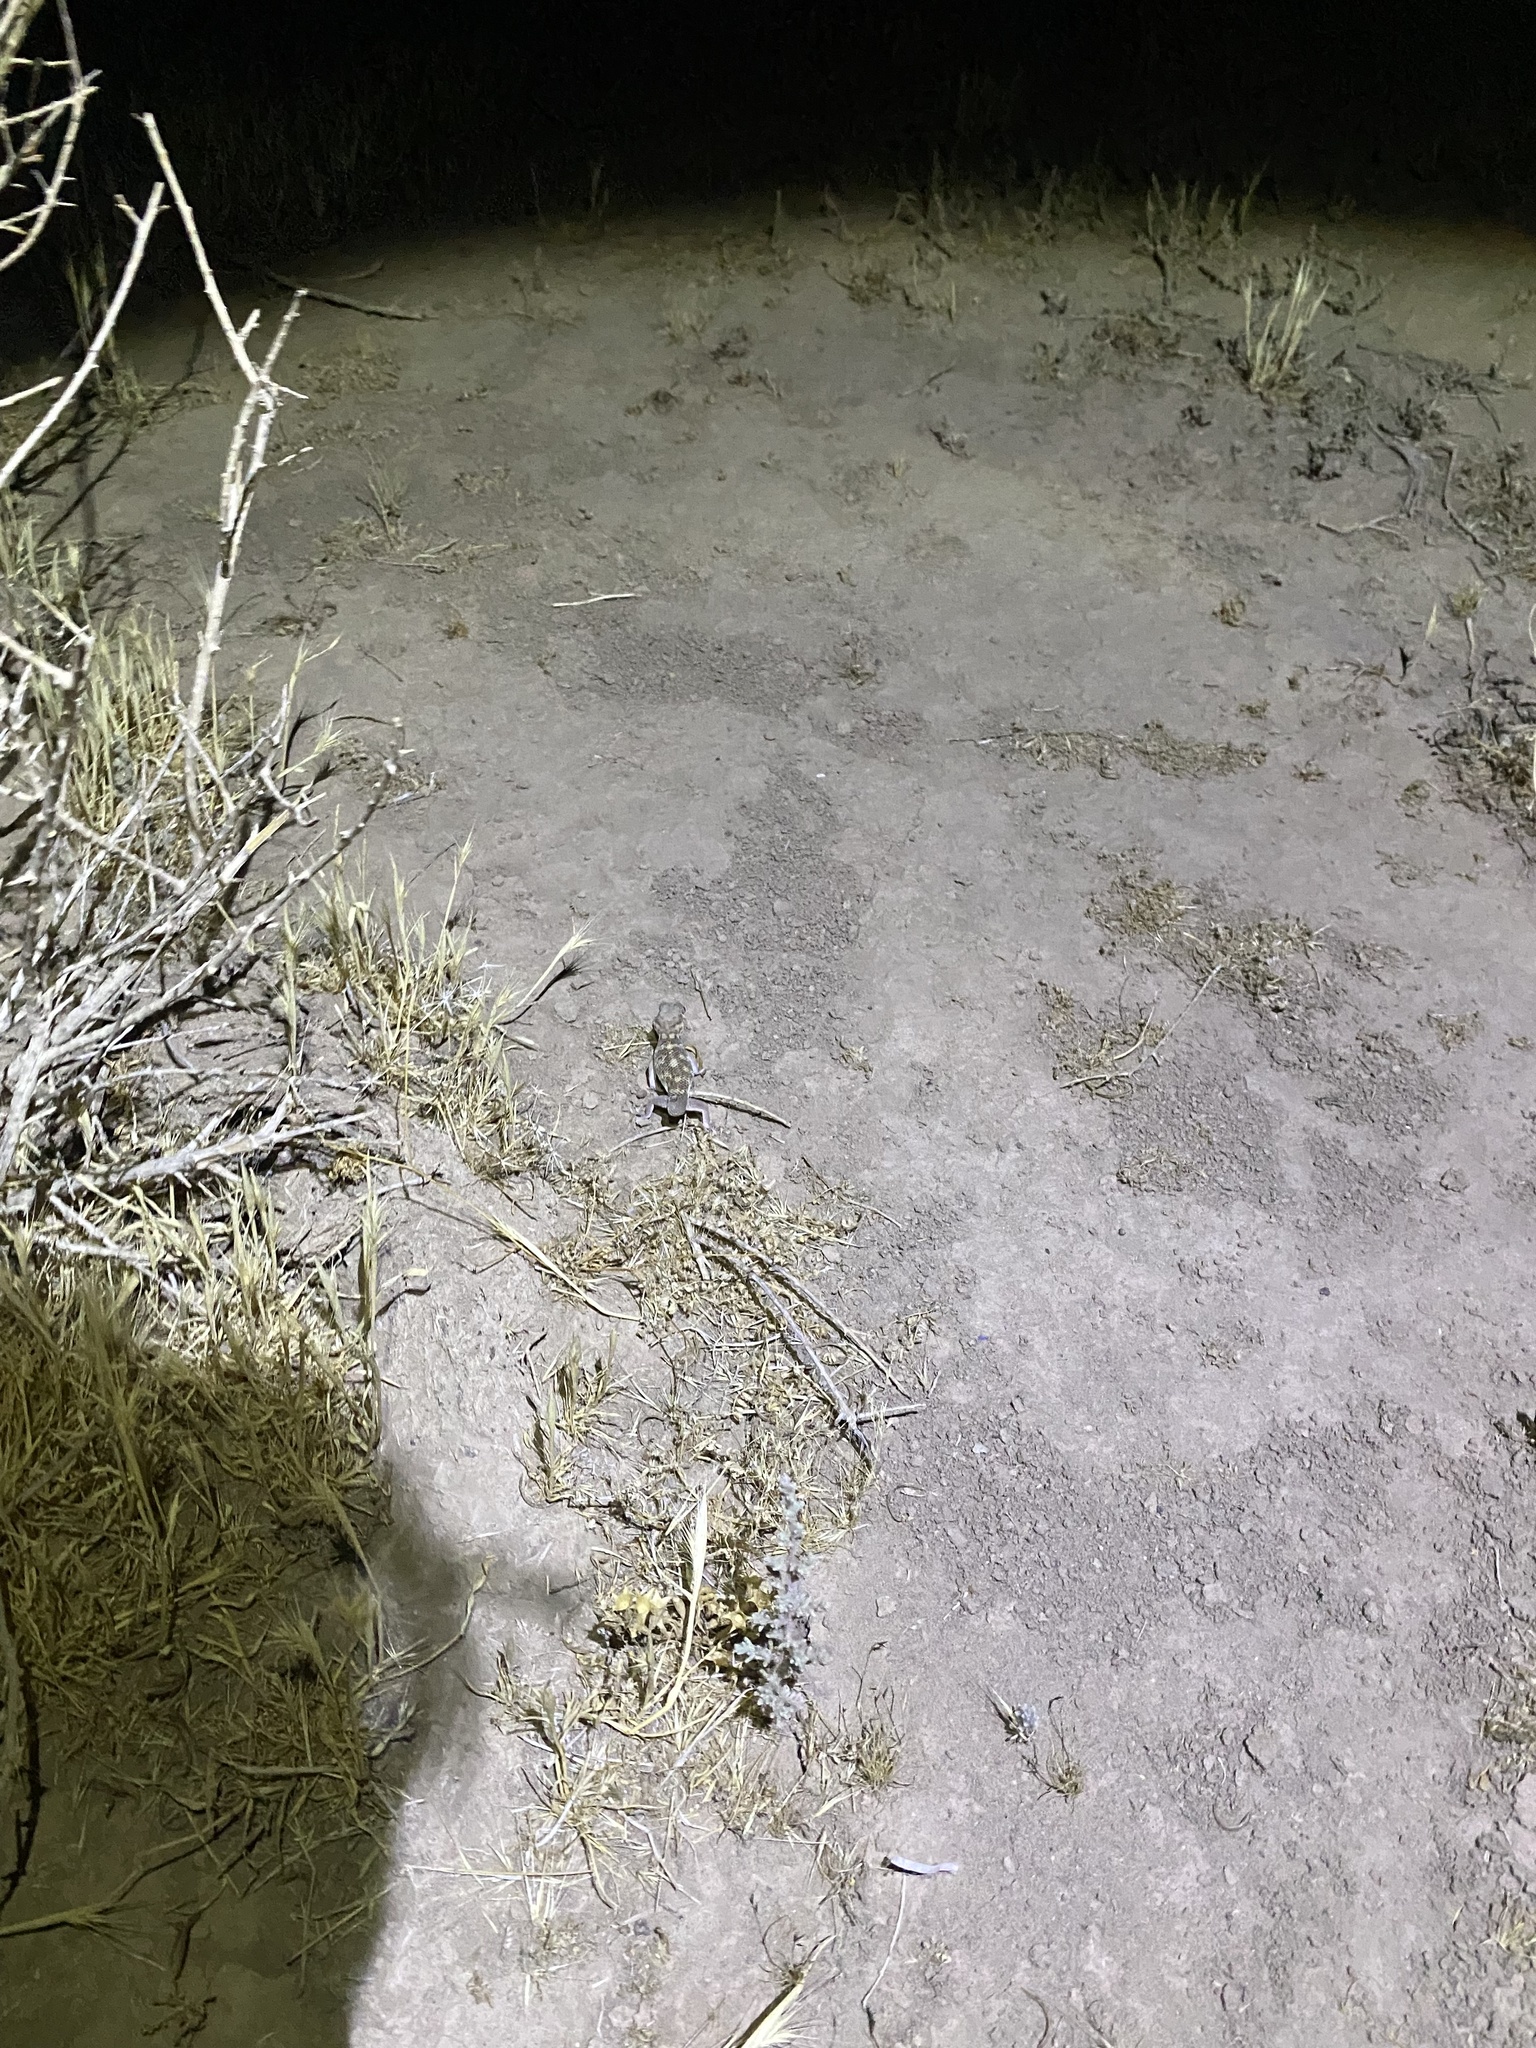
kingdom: Animalia
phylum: Chordata
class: Squamata
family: Sphaerodactylidae
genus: Teratoscincus
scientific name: Teratoscincus bedriagai
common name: Bedriaga's plate-tailed gecko
